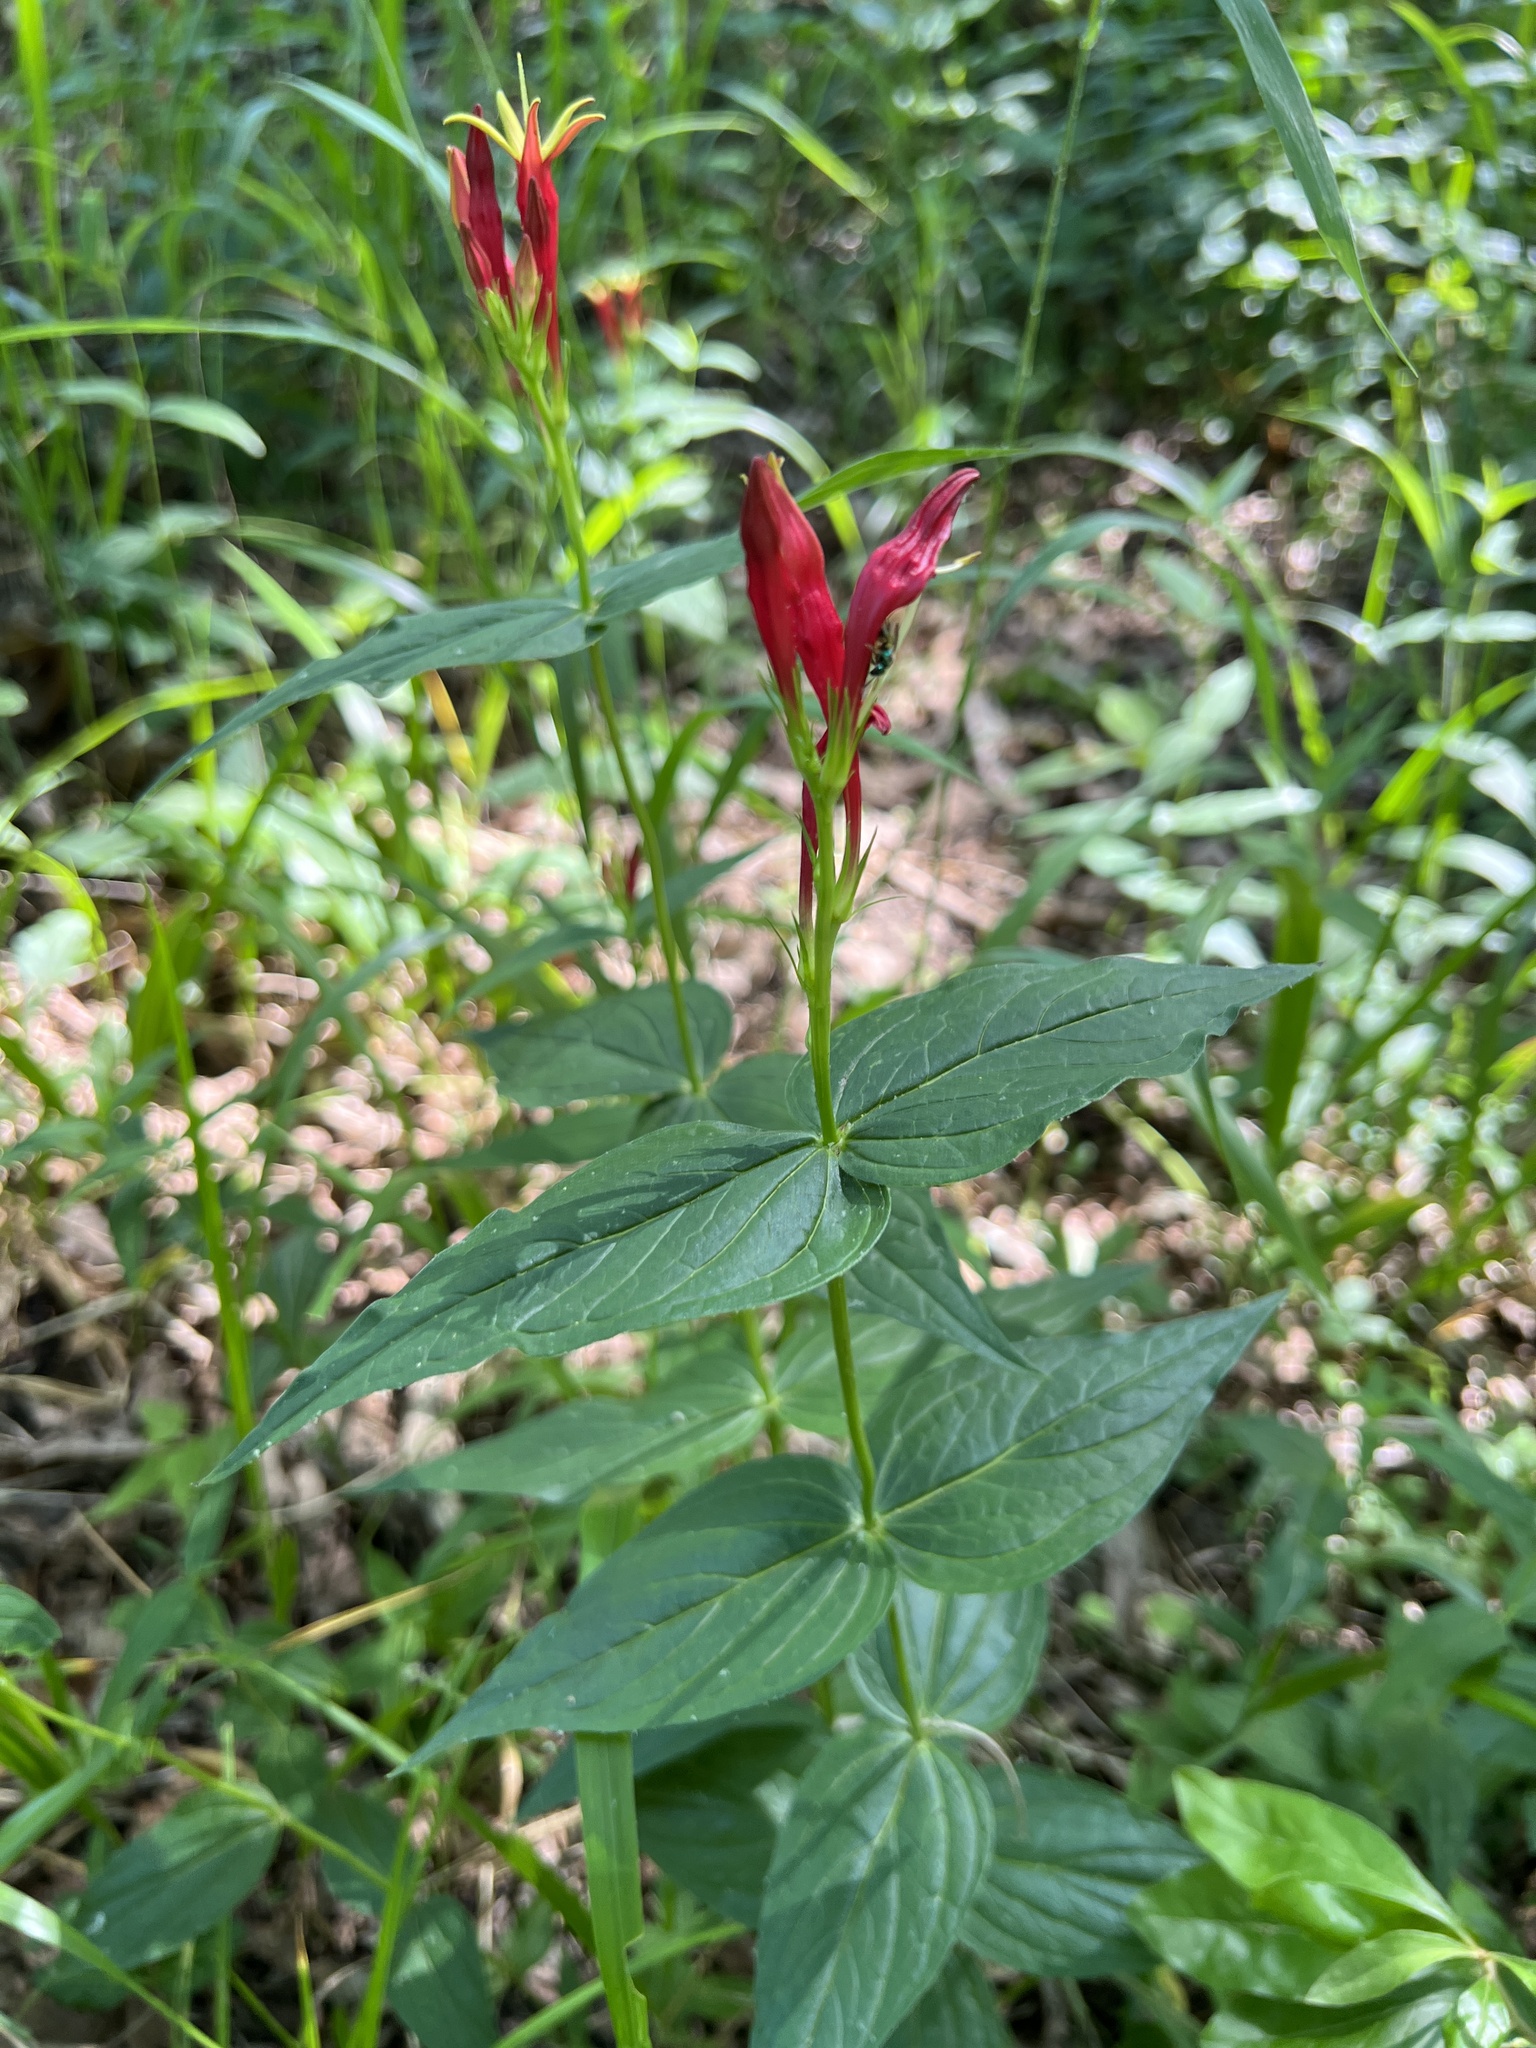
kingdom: Plantae
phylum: Tracheophyta
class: Magnoliopsida
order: Gentianales
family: Loganiaceae
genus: Spigelia
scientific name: Spigelia marilandica
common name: Indian-pink
